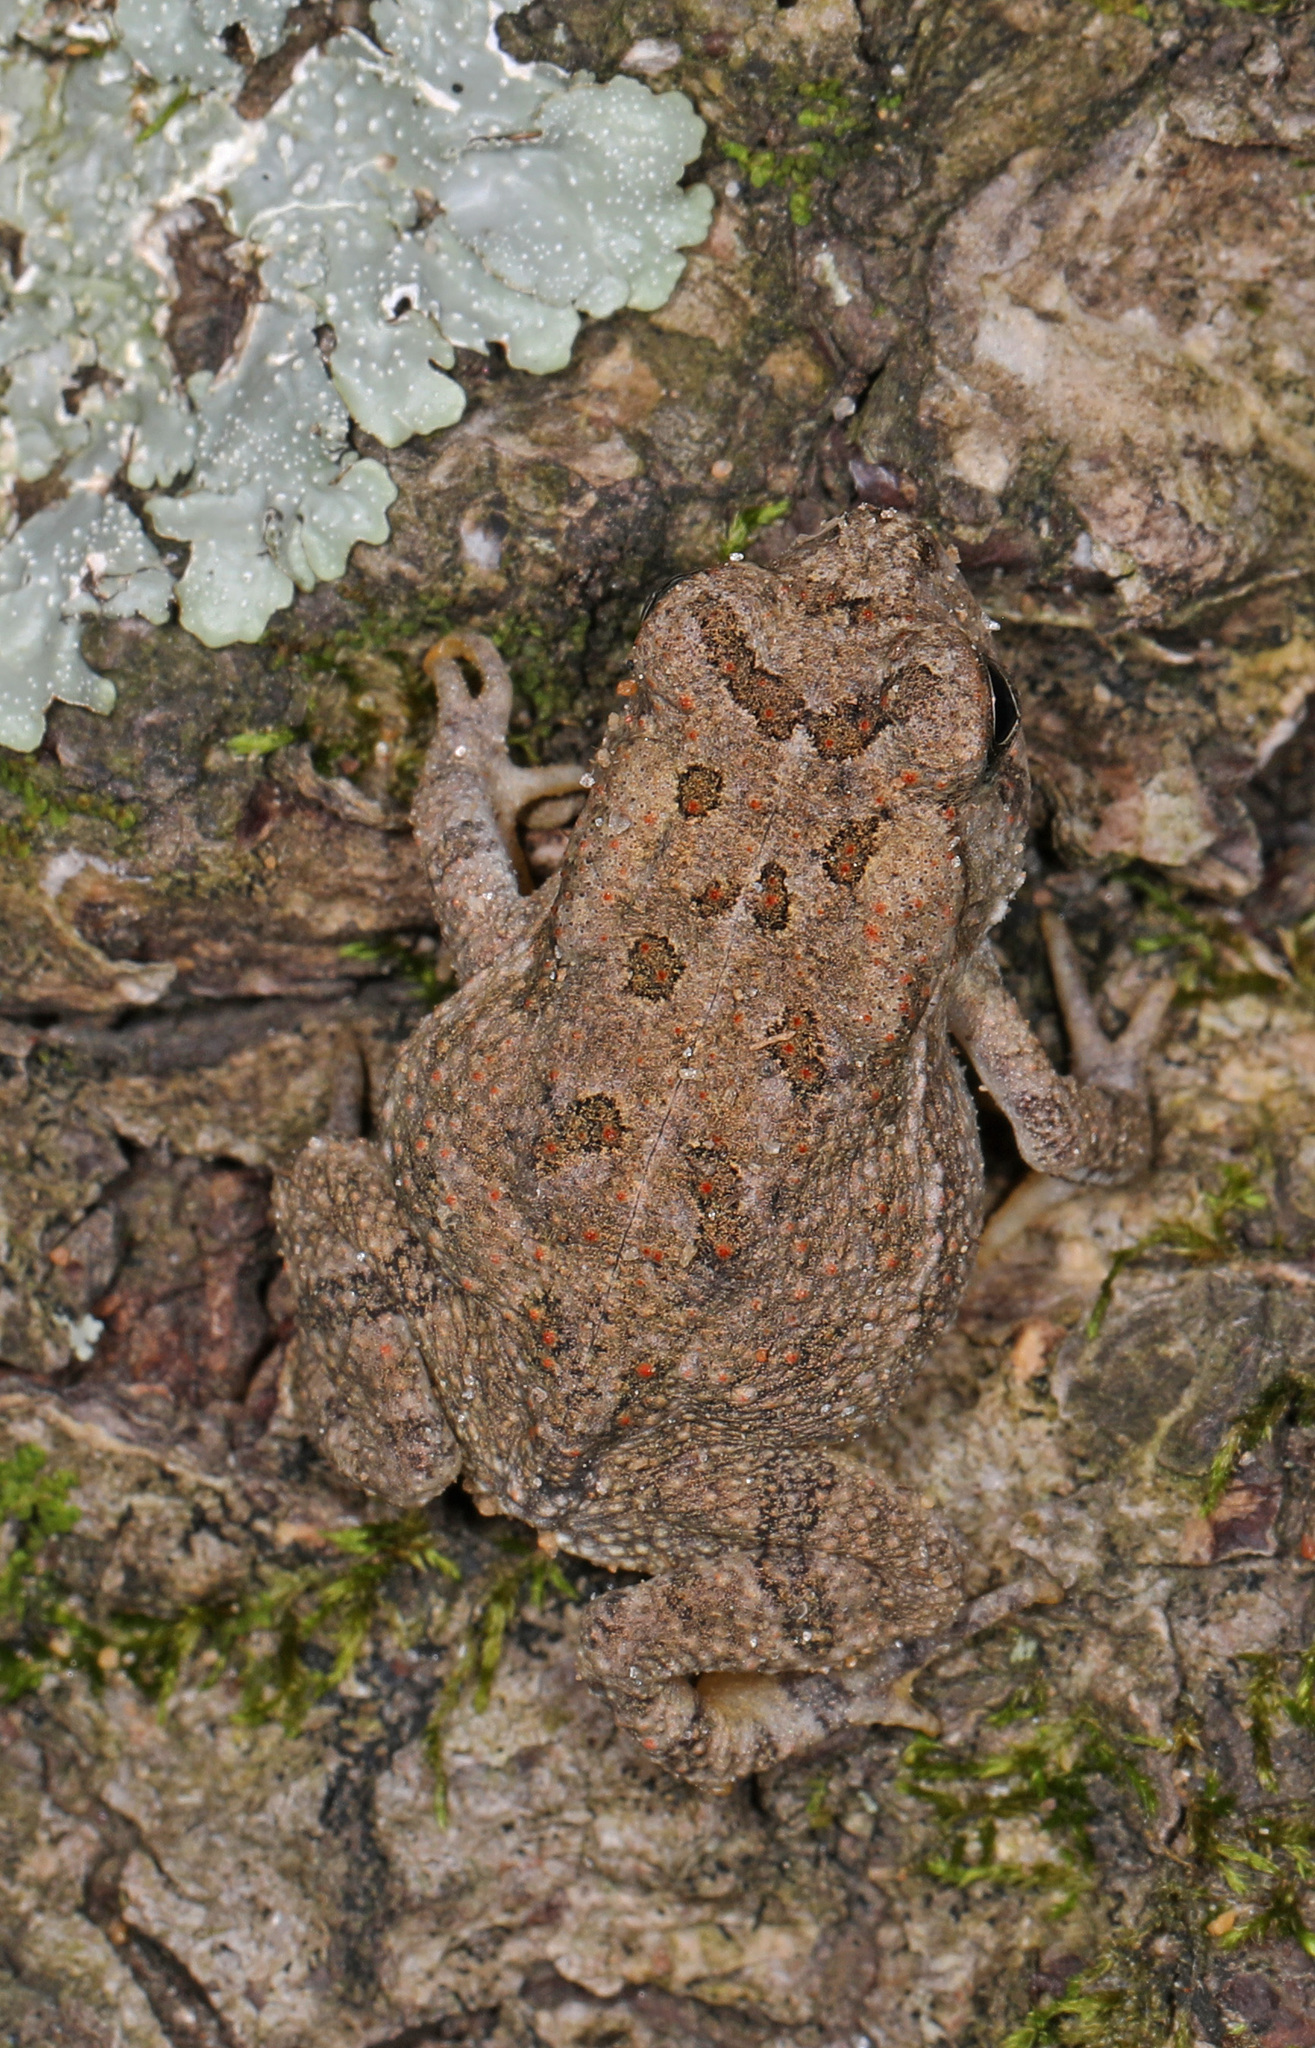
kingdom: Animalia
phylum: Chordata
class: Amphibia
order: Anura
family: Bufonidae
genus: Anaxyrus
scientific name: Anaxyrus fowleri
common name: Fowler's toad
